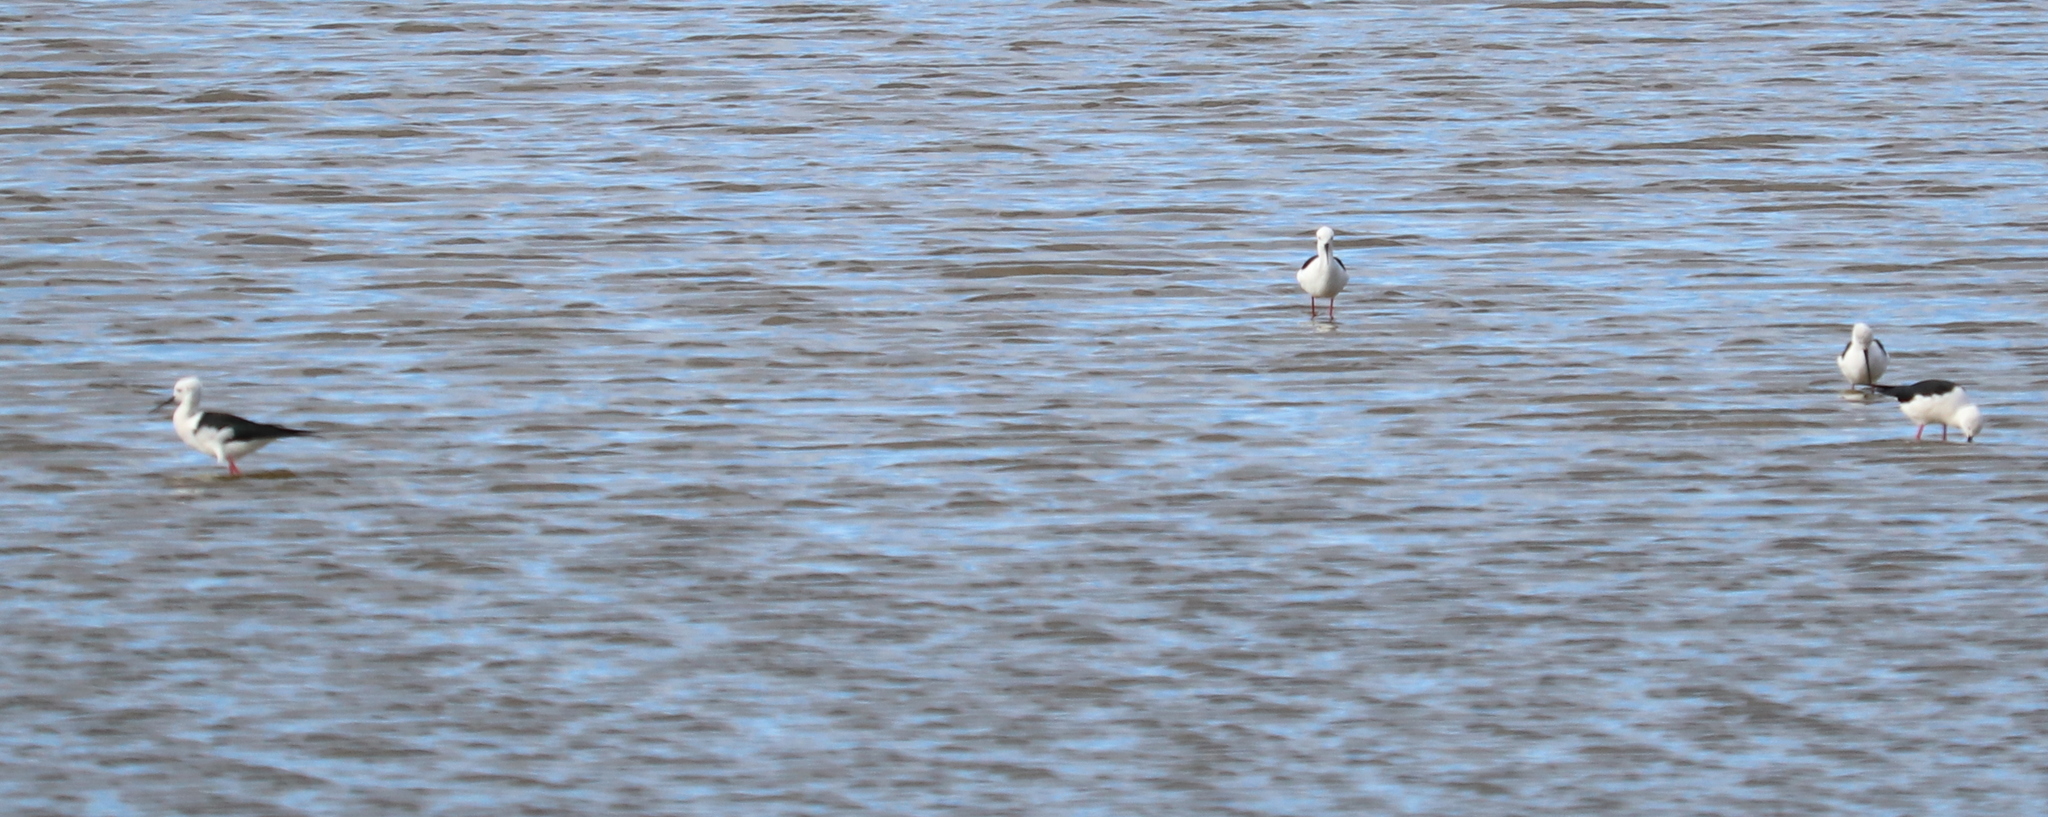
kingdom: Animalia
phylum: Chordata
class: Aves
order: Charadriiformes
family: Recurvirostridae
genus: Himantopus
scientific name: Himantopus himantopus
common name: Black-winged stilt
